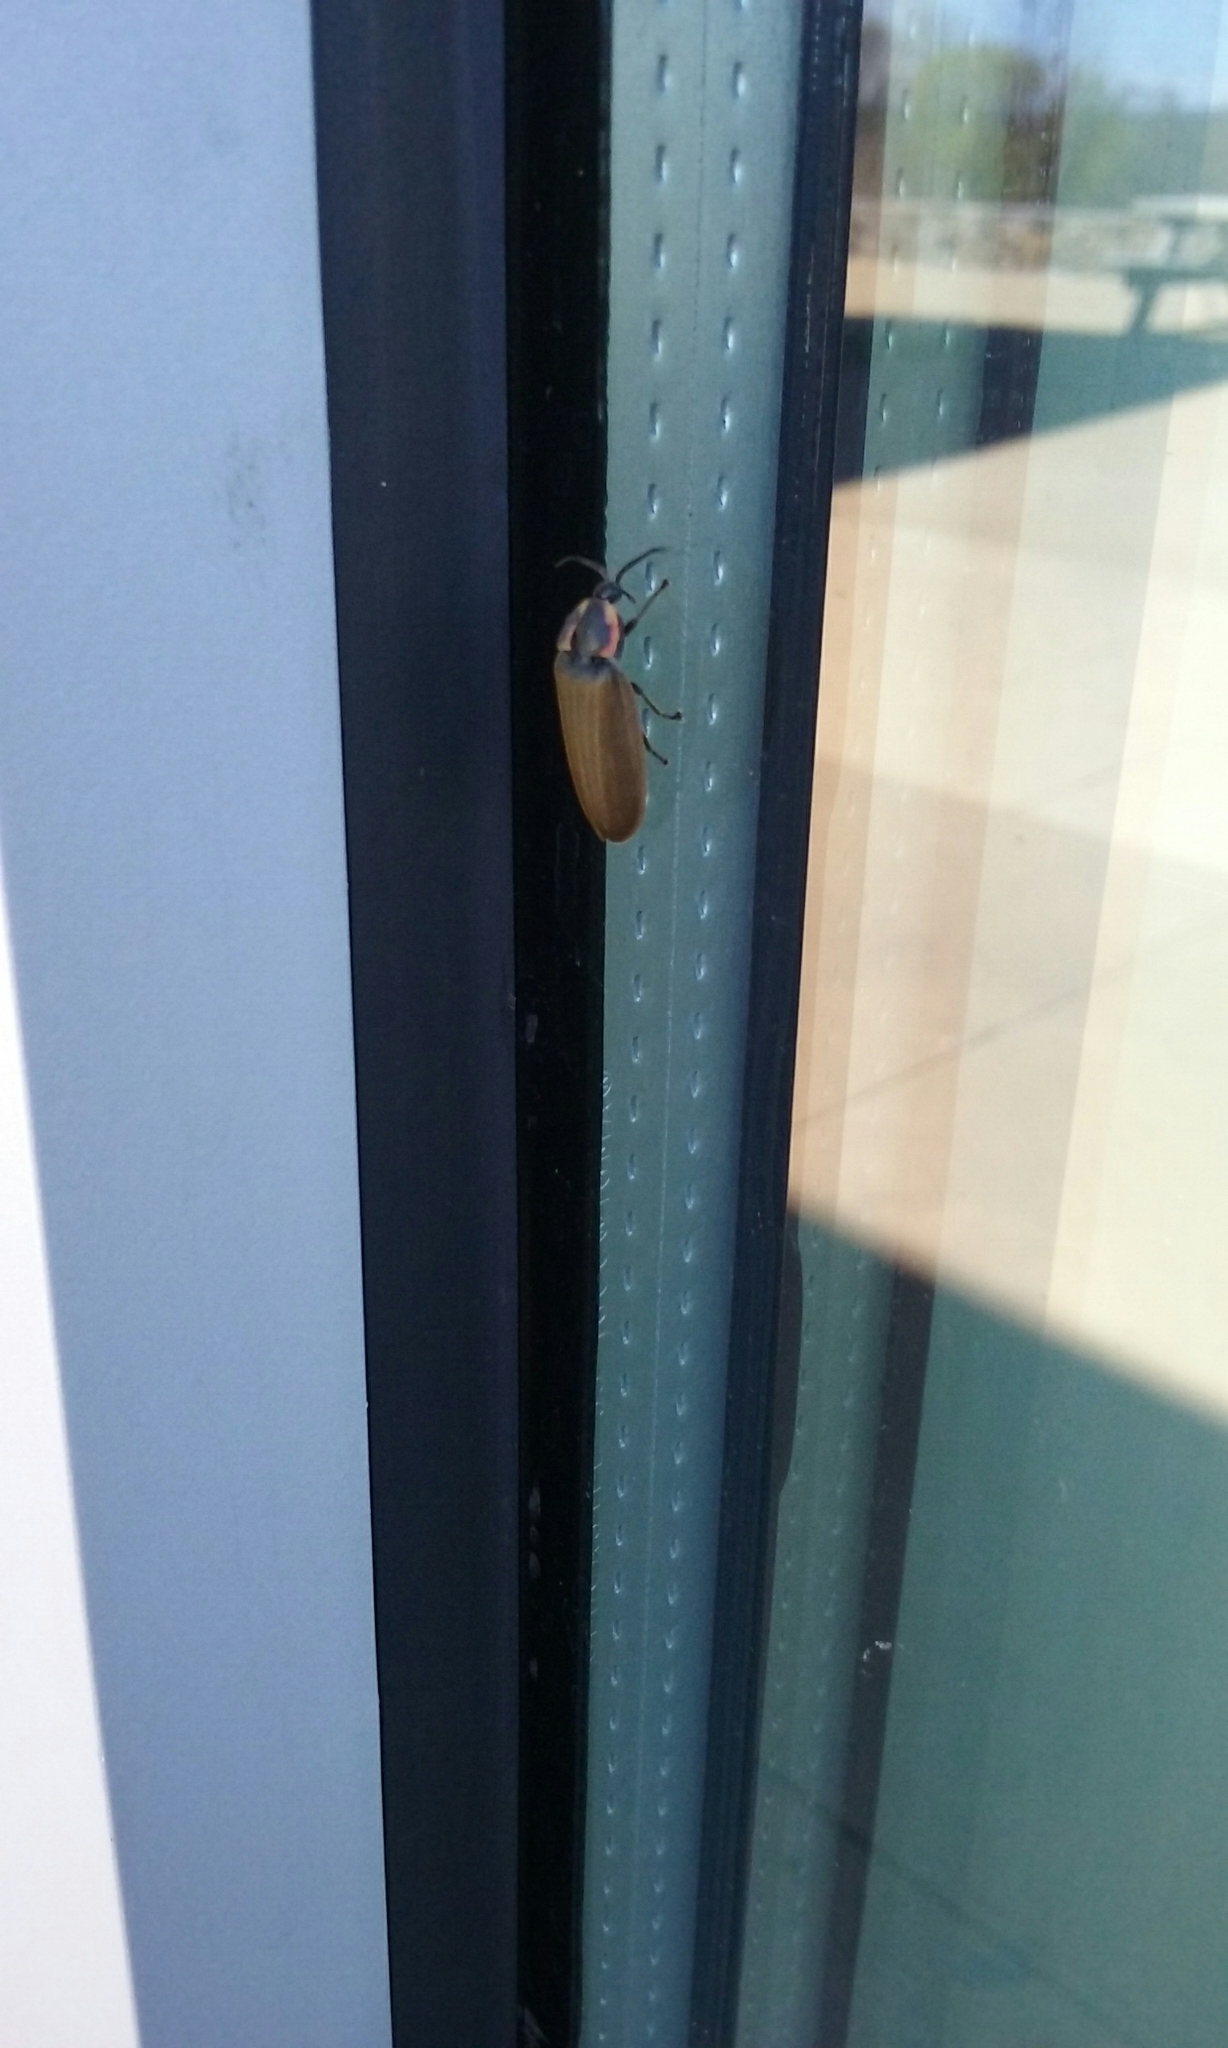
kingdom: Animalia
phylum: Arthropoda
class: Insecta
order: Coleoptera
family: Lampyridae
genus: Photinus
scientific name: Photinus corrusca
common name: Winter firefly
